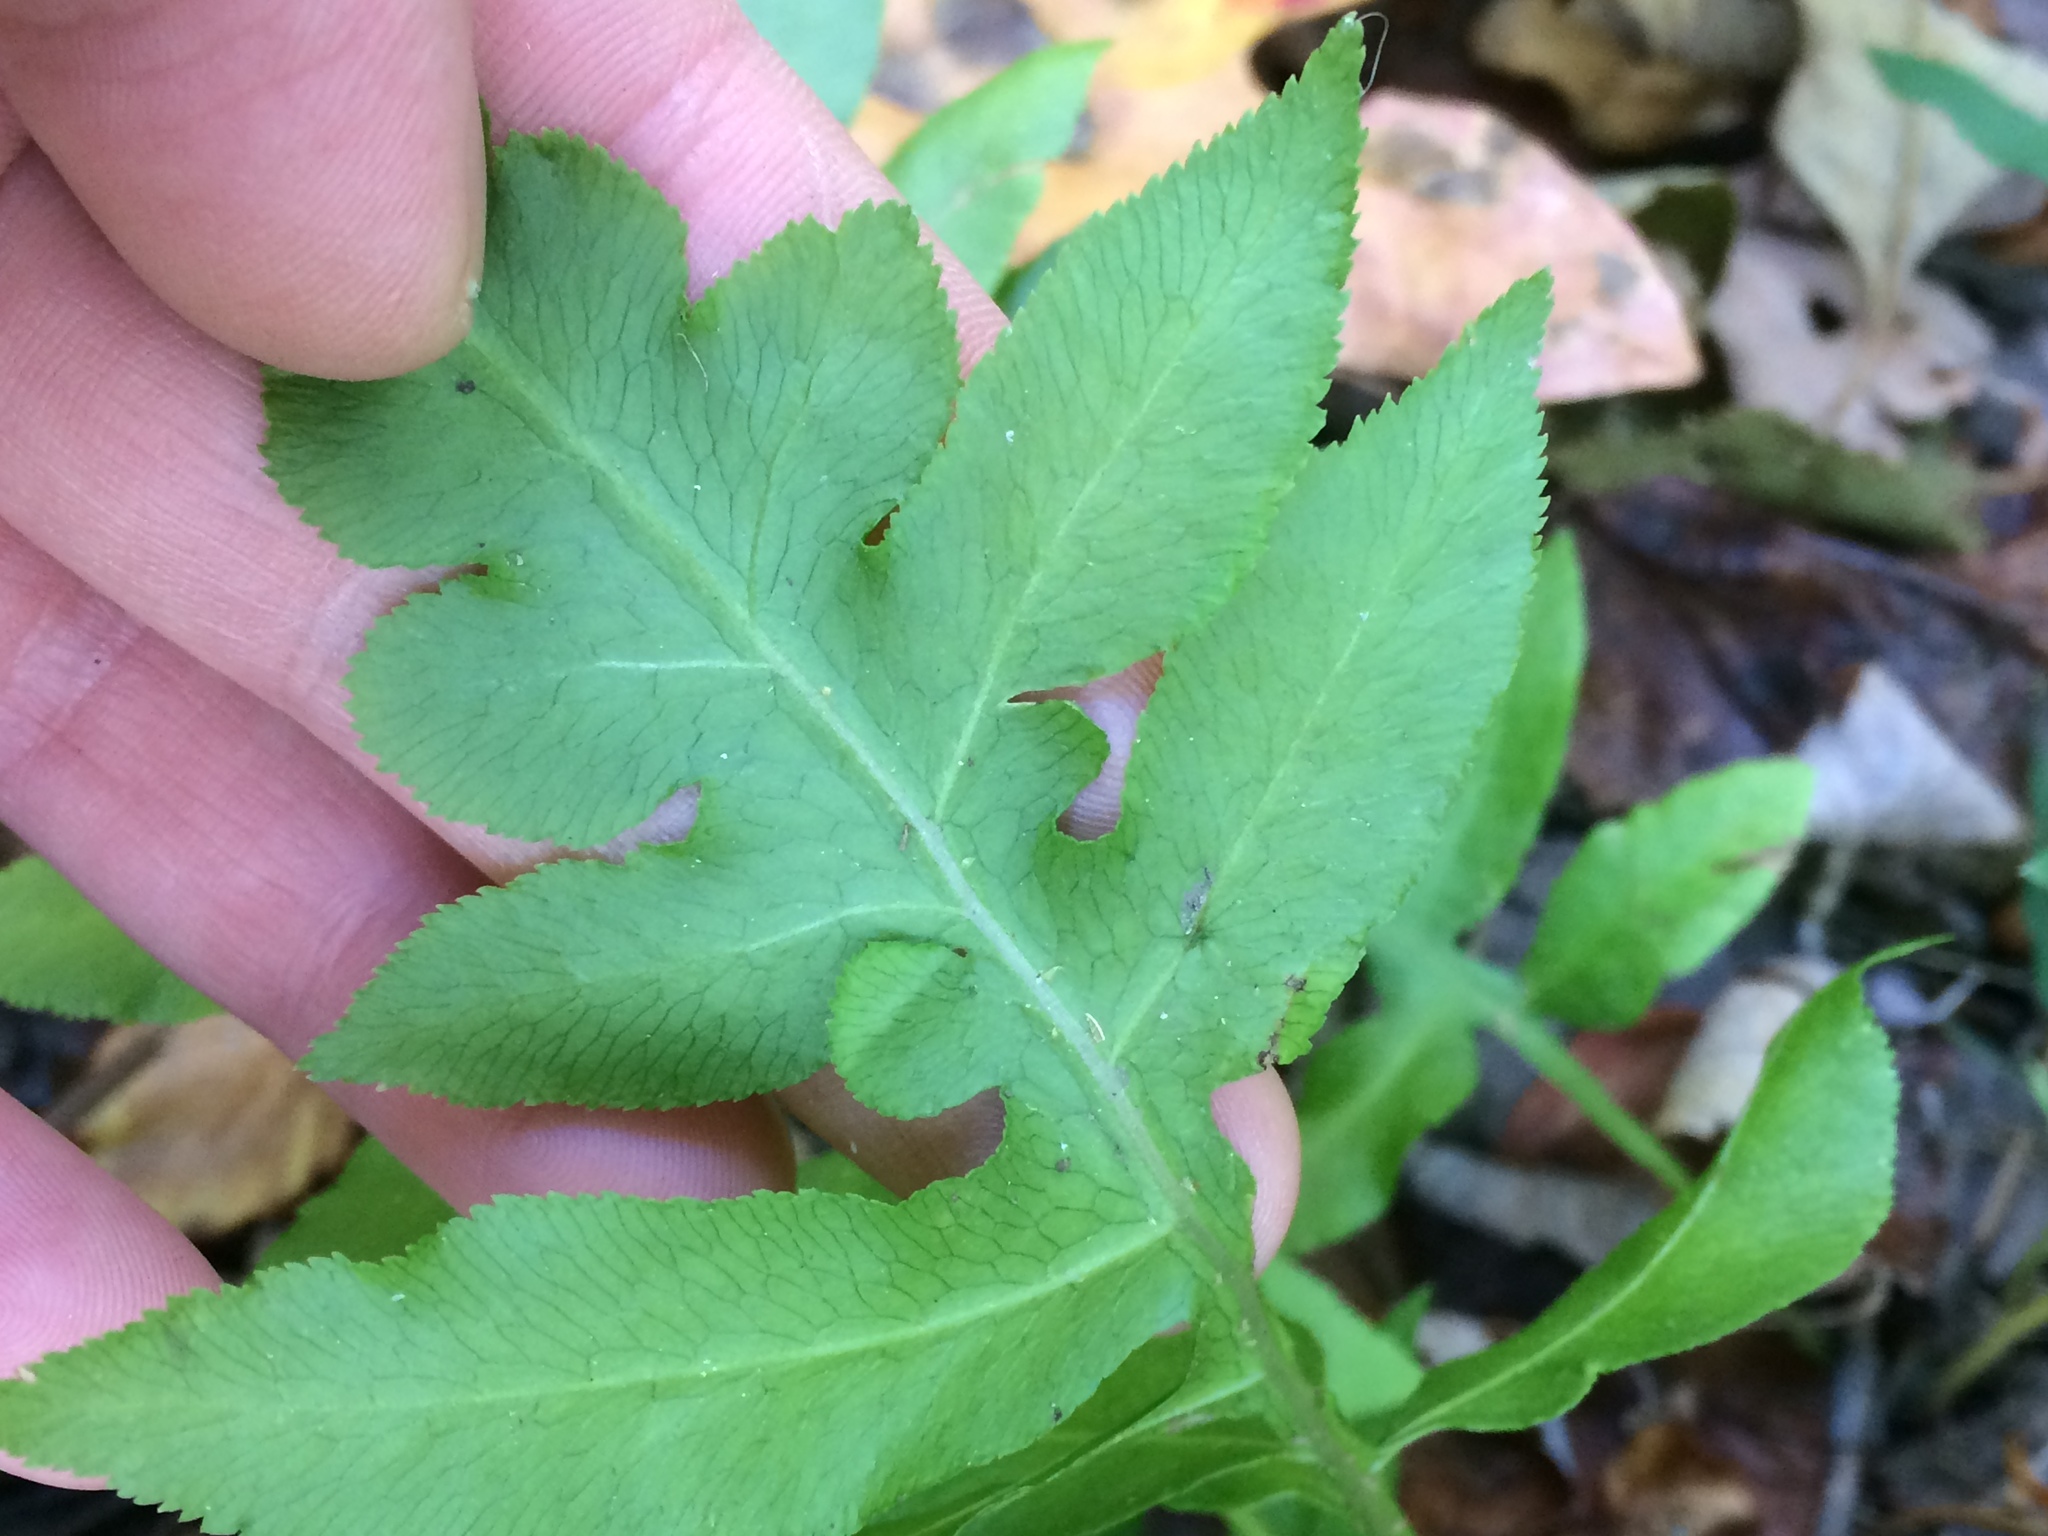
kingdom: Plantae
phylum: Tracheophyta
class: Polypodiopsida
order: Polypodiales
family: Blechnaceae
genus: Lorinseria
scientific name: Lorinseria areolata
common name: Dwarf chain fern
